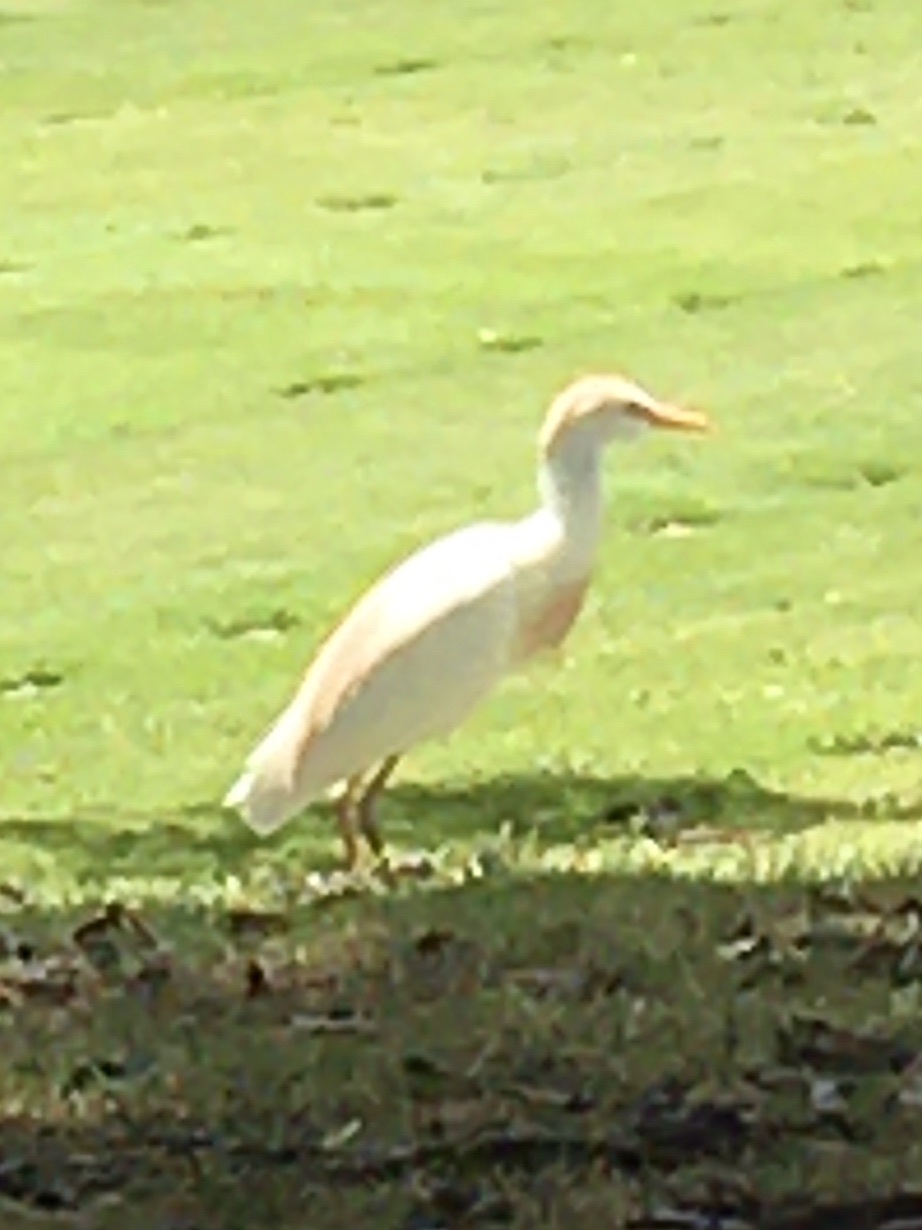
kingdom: Animalia
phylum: Chordata
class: Aves
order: Pelecaniformes
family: Ardeidae
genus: Bubulcus
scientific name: Bubulcus ibis
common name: Cattle egret
